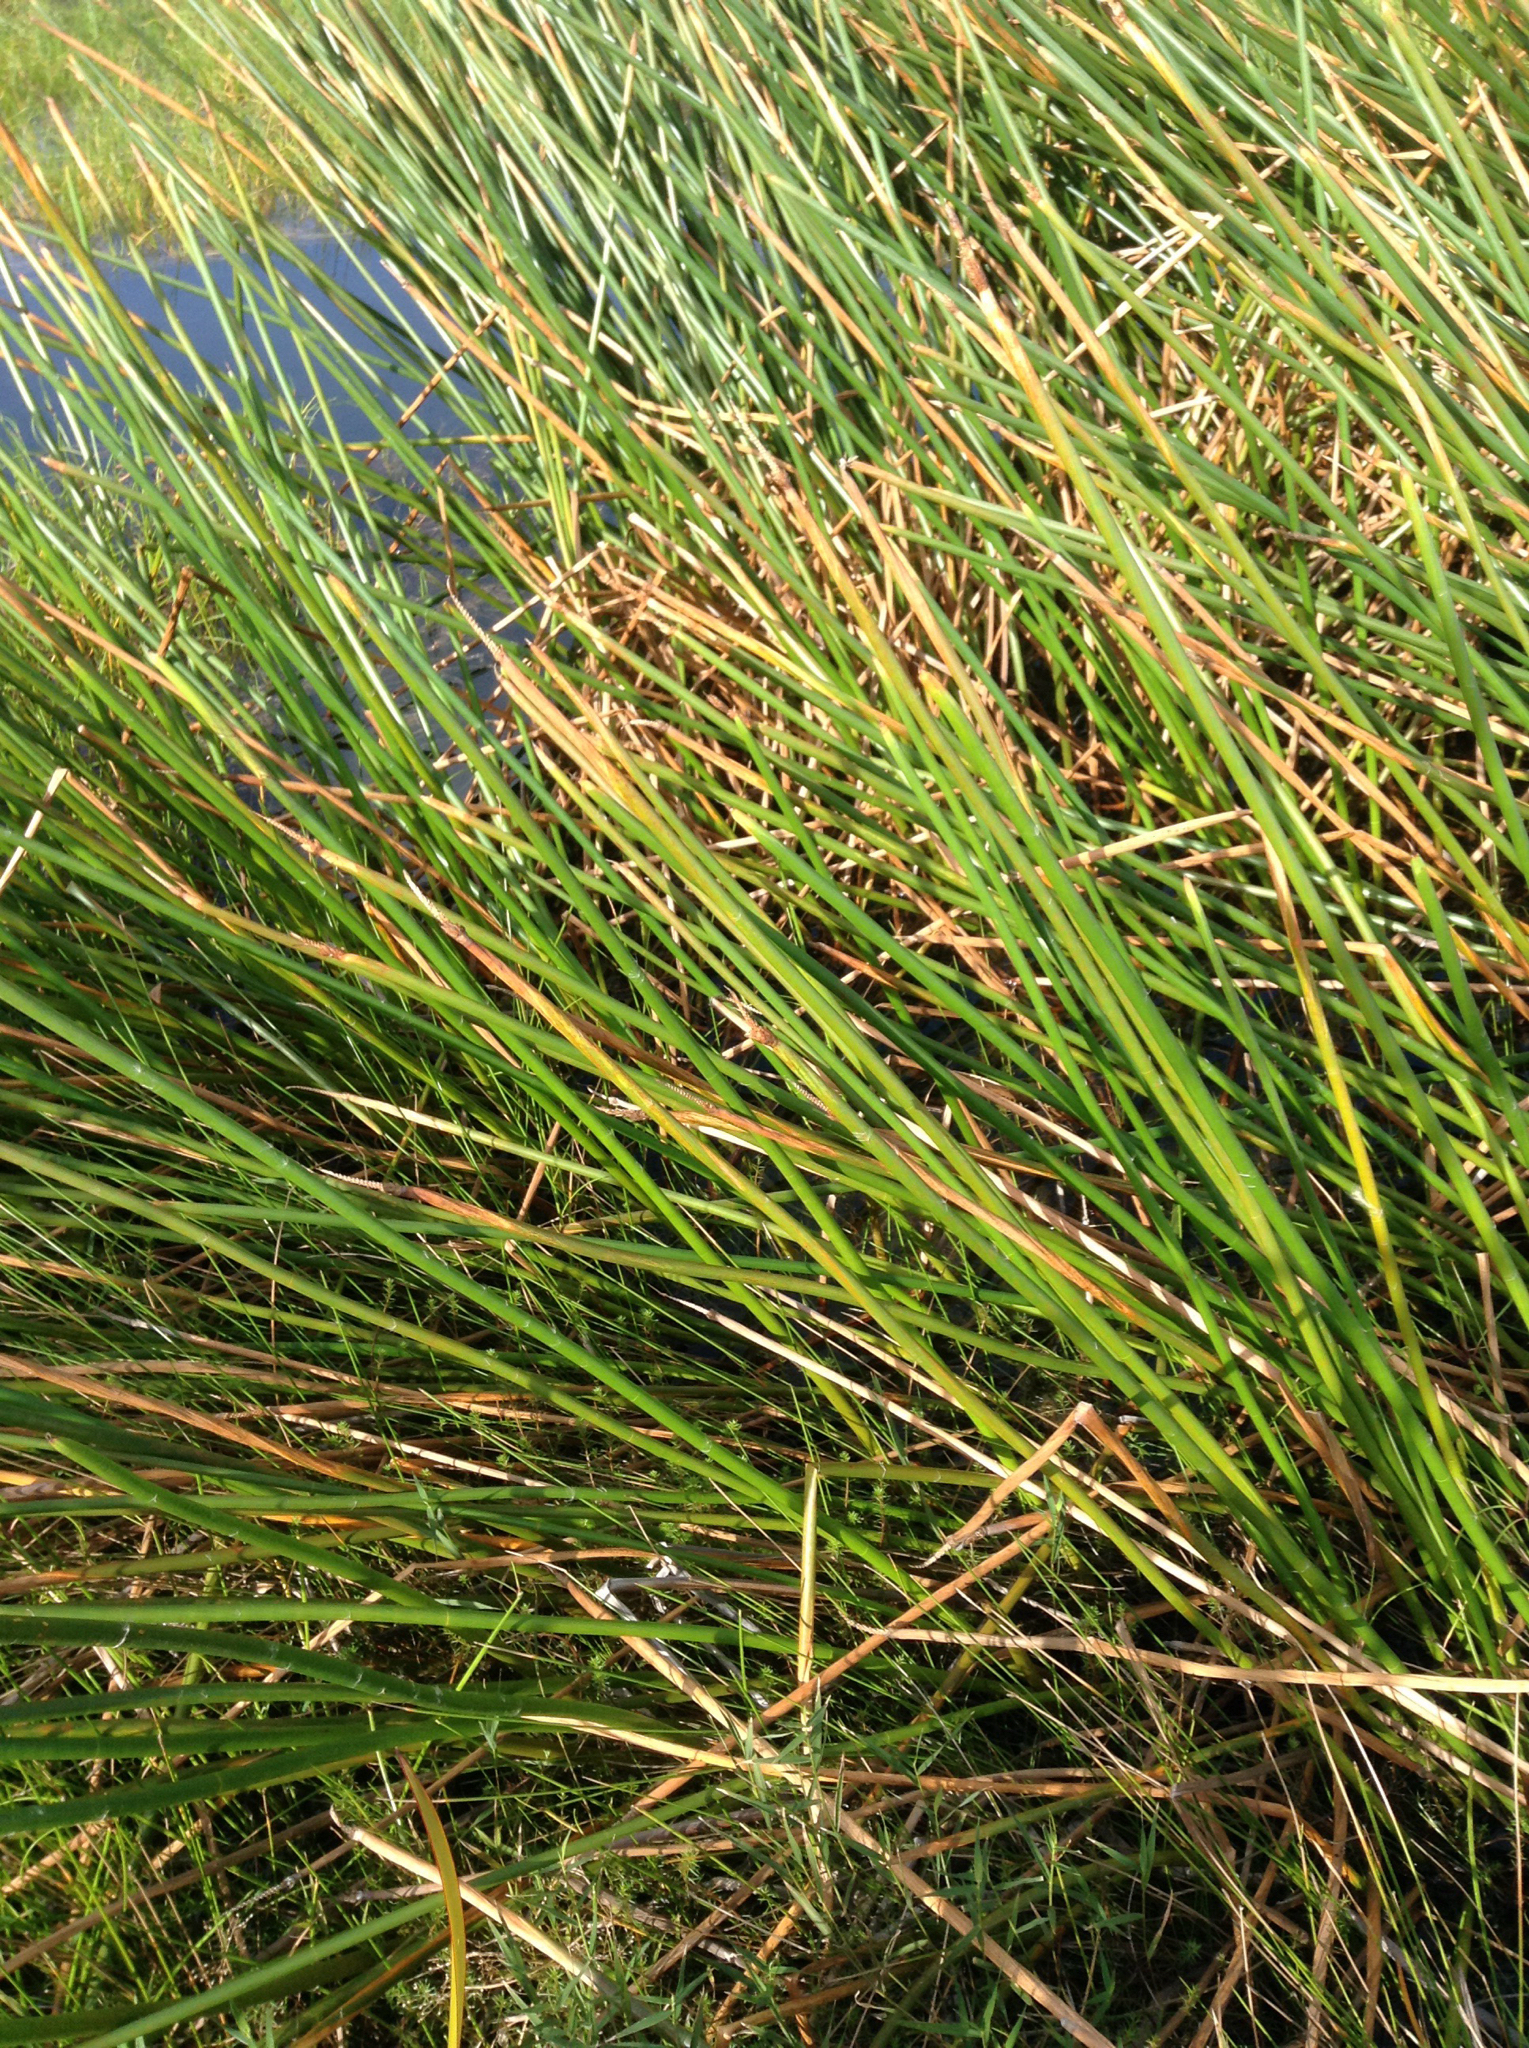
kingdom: Plantae
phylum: Tracheophyta
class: Liliopsida
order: Poales
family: Cyperaceae
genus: Eleocharis
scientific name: Eleocharis sphacelata
